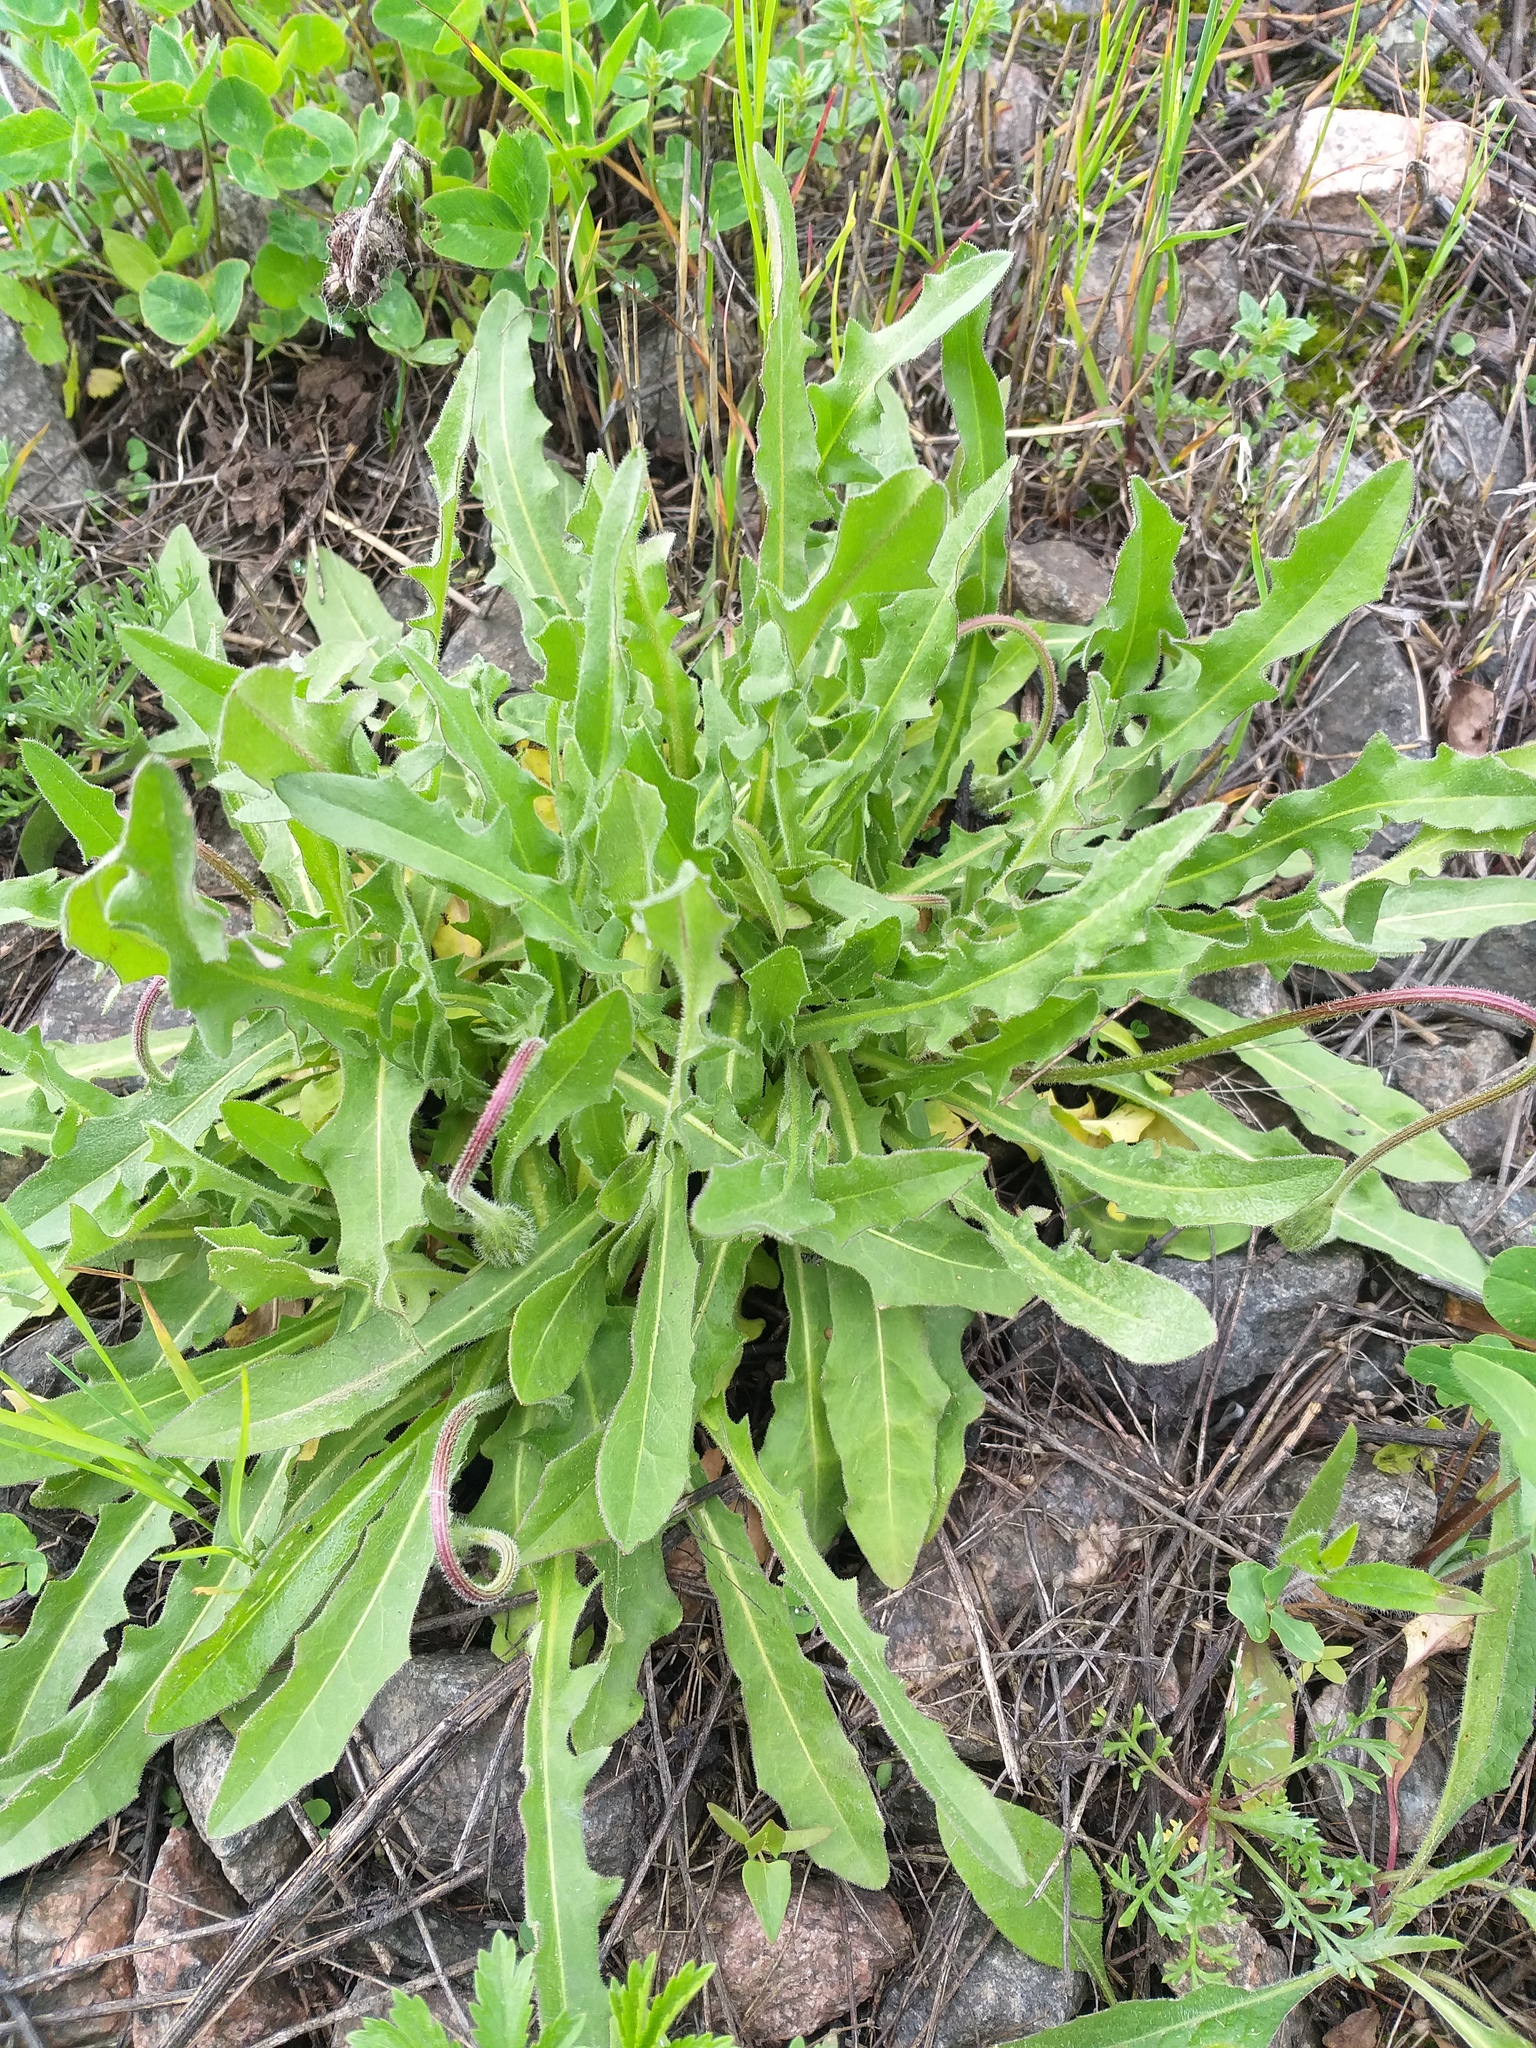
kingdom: Plantae
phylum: Tracheophyta
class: Magnoliopsida
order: Asterales
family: Asteraceae
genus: Leontodon
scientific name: Leontodon hispidus
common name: Rough hawkbit
